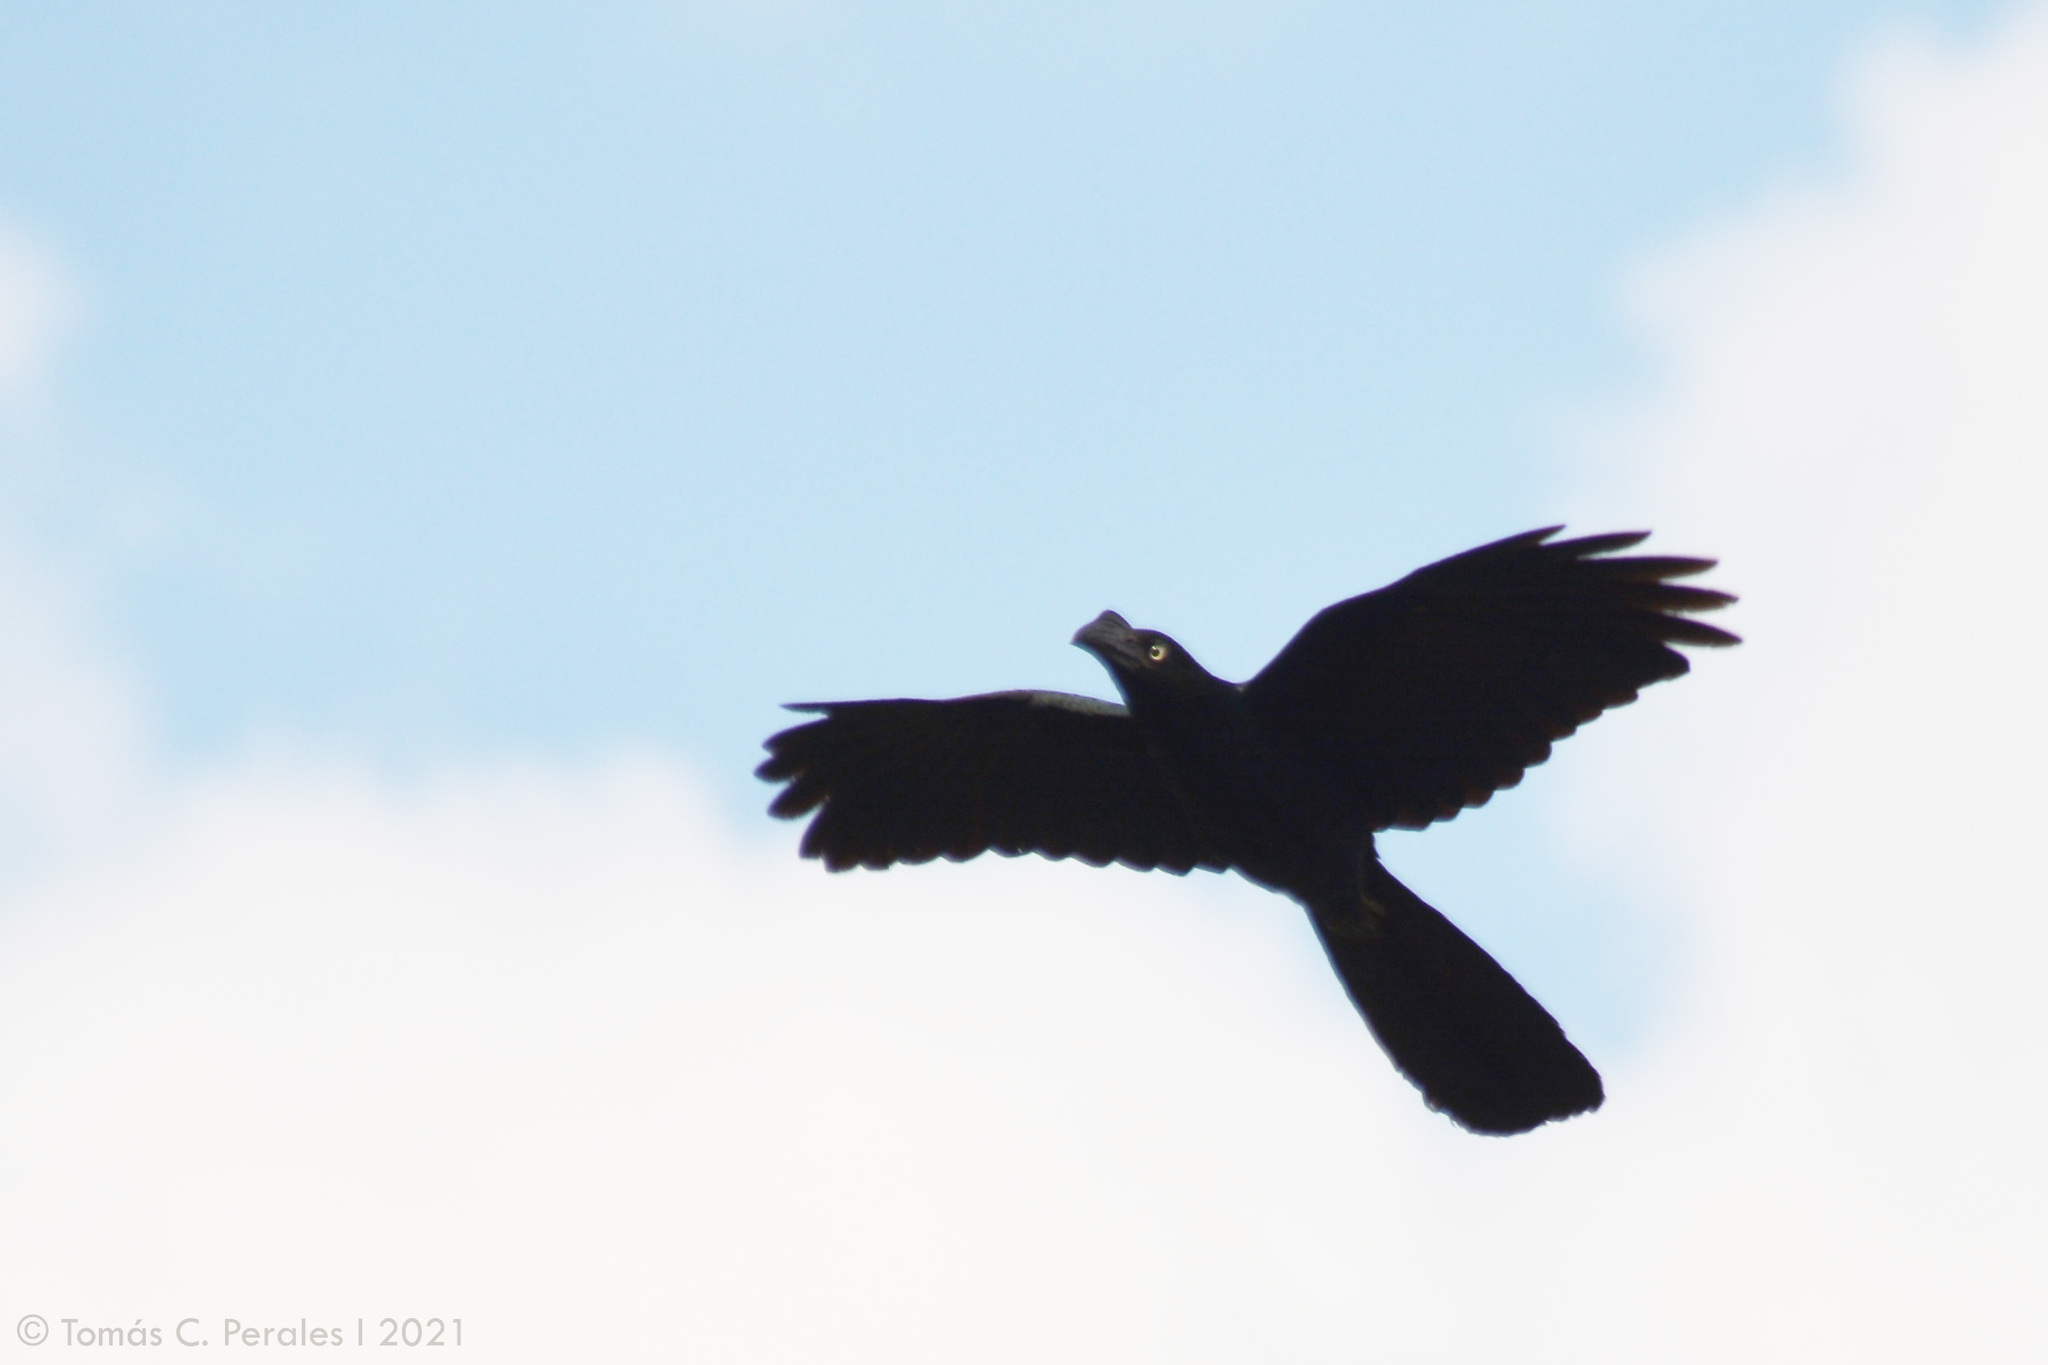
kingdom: Animalia
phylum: Chordata
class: Aves
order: Cuculiformes
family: Cuculidae
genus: Crotophaga
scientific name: Crotophaga major
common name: Greater ani
